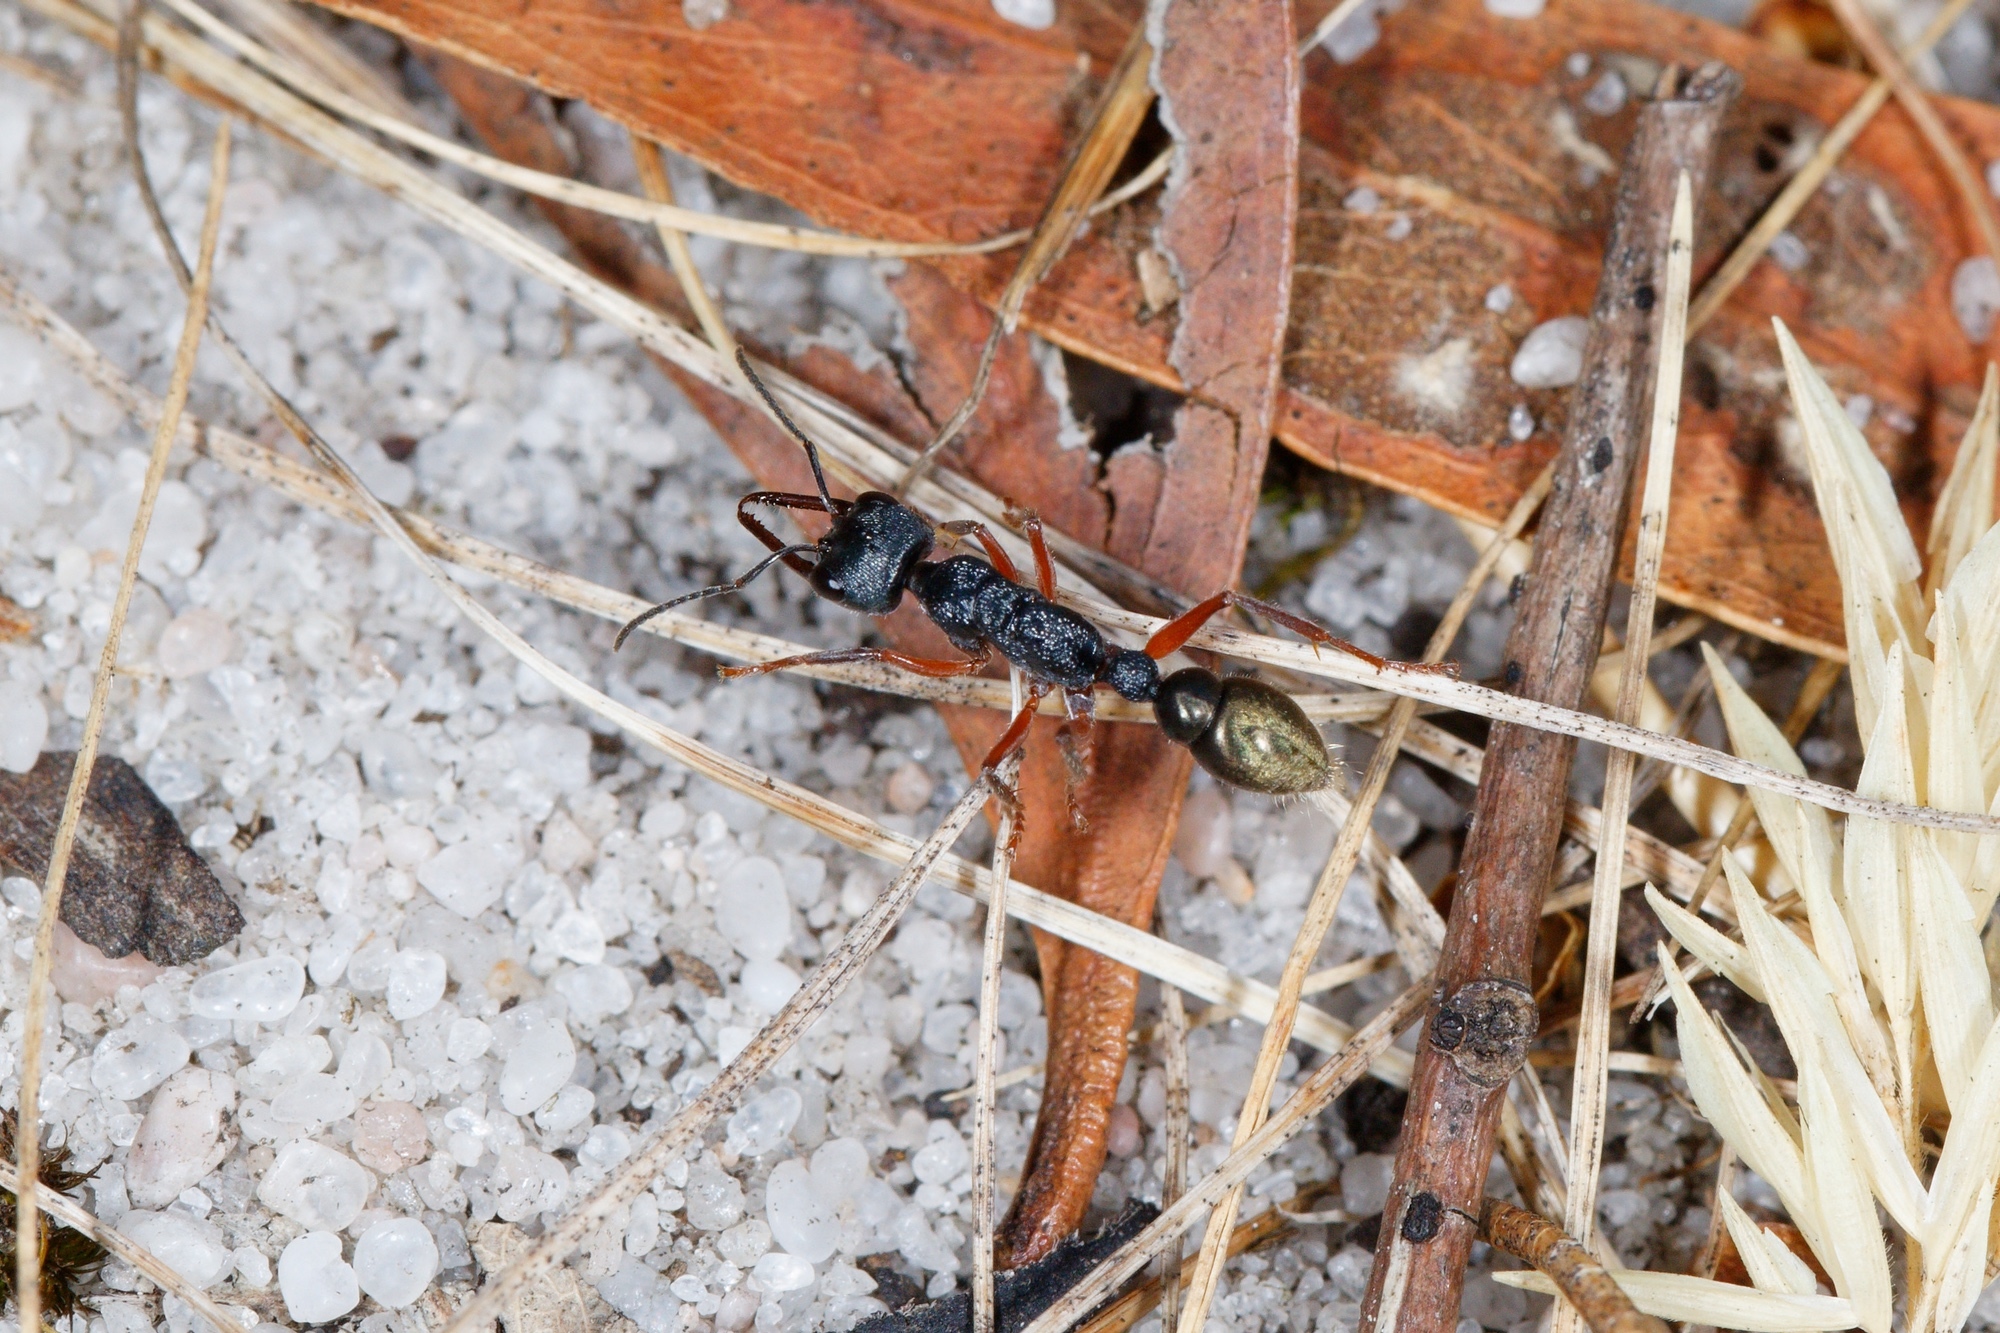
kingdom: Animalia
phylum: Arthropoda
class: Insecta
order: Hymenoptera
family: Formicidae
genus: Myrmecia
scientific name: Myrmecia fulvipes
